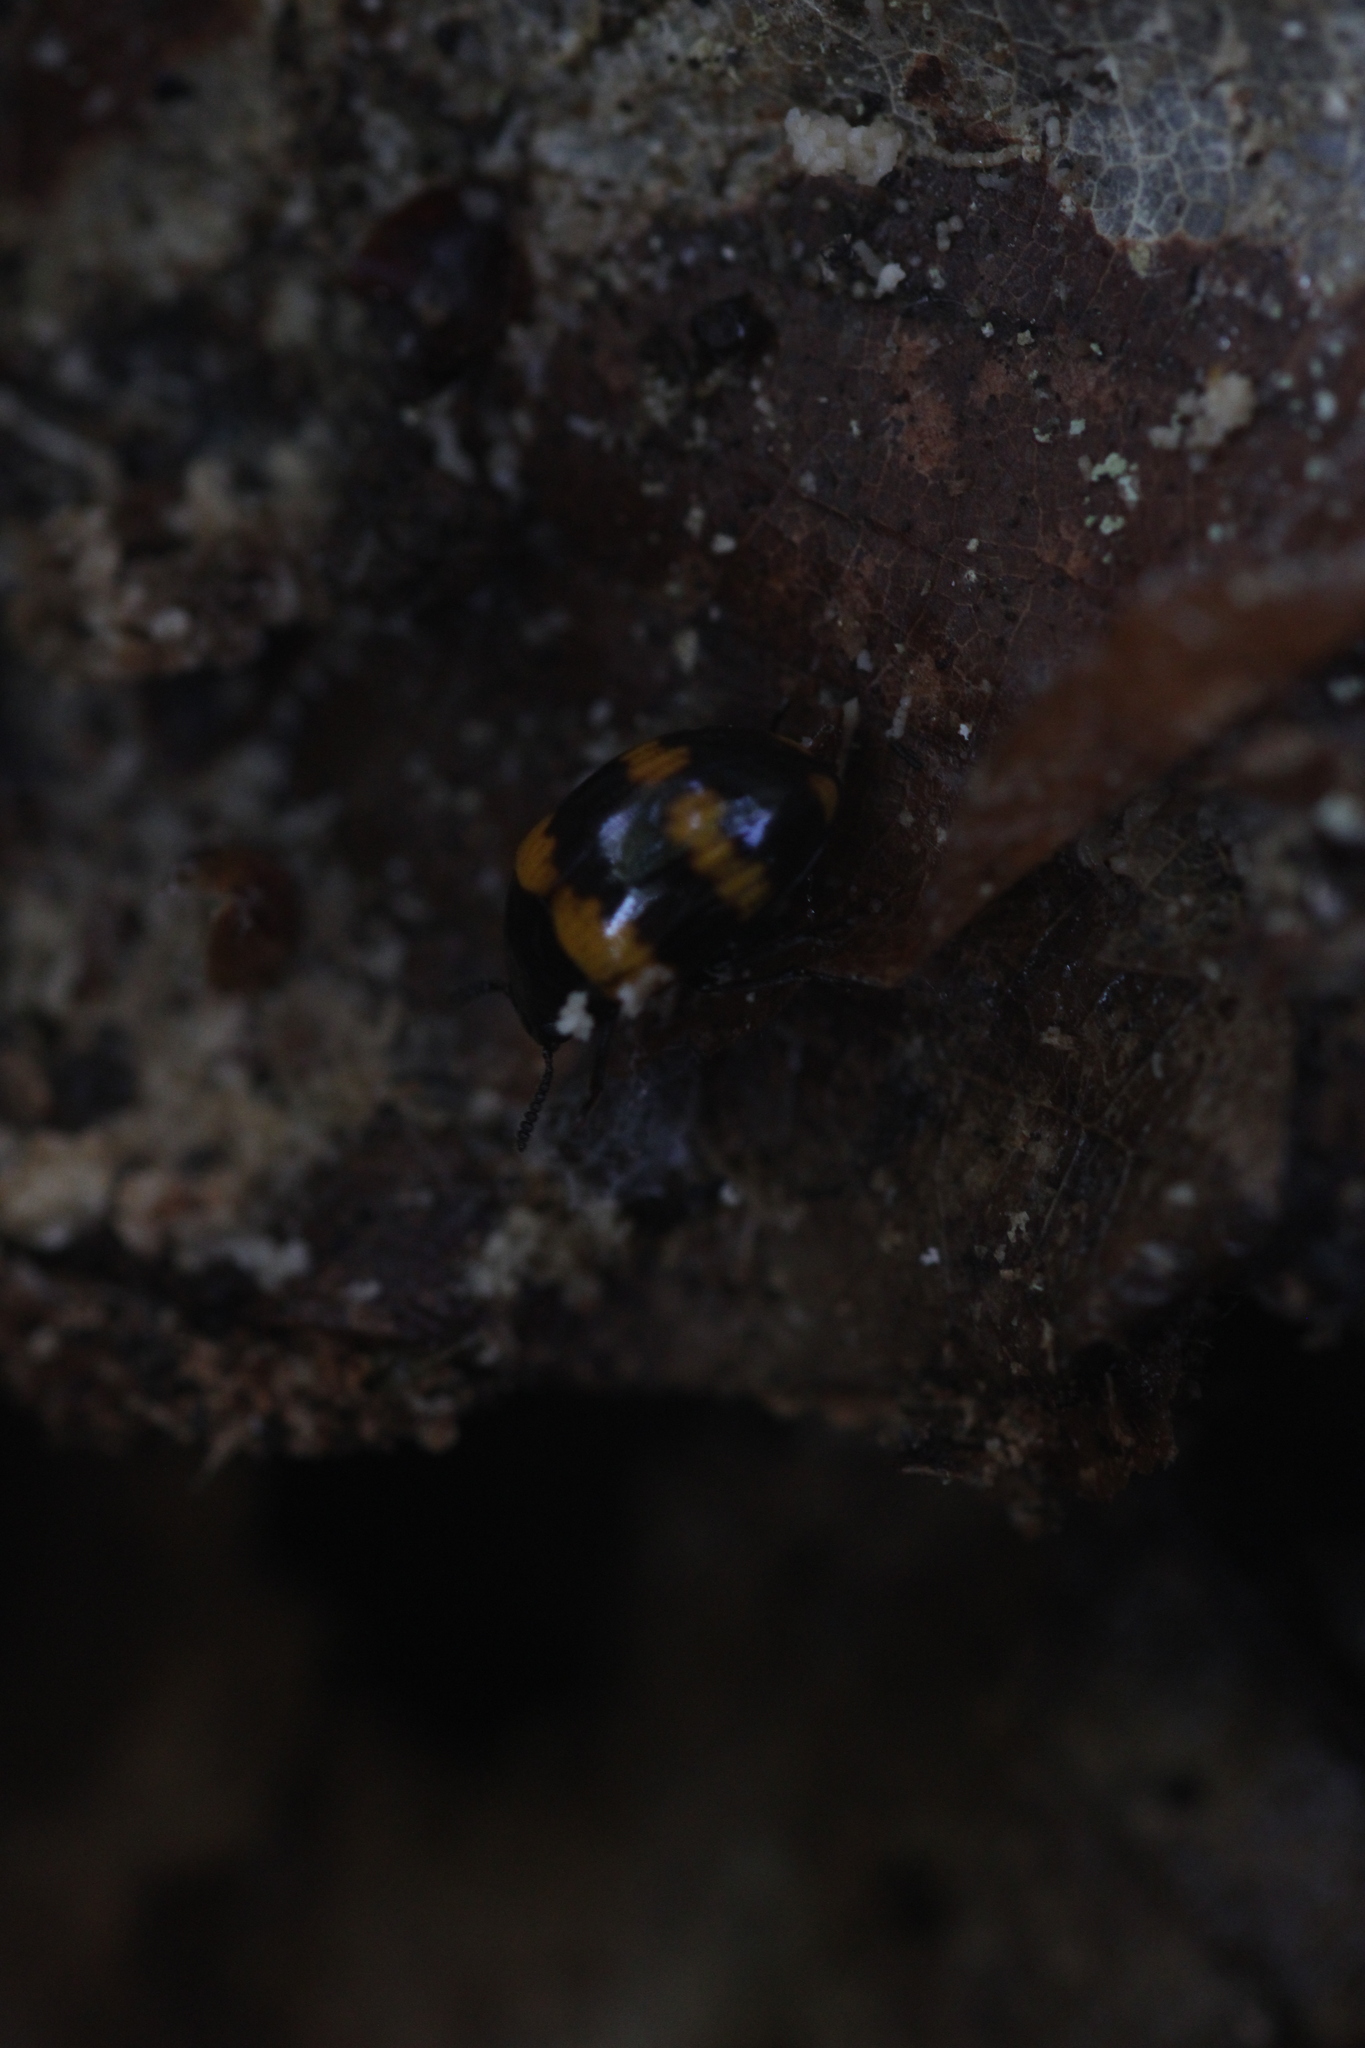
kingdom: Animalia
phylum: Arthropoda
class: Insecta
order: Coleoptera
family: Tenebrionidae
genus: Diaperis
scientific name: Diaperis boleti
